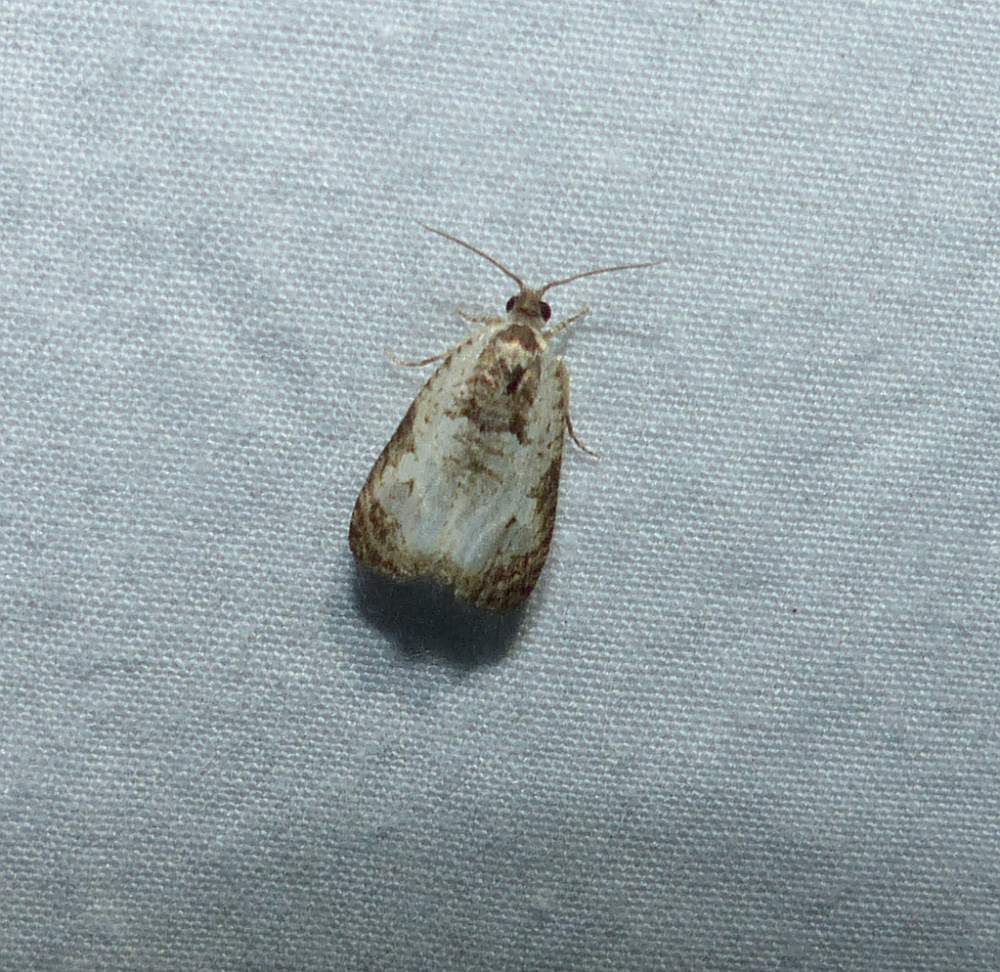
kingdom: Animalia
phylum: Arthropoda
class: Insecta
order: Lepidoptera
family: Tortricidae
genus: Olethreutes
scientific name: Olethreutes malana
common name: Malana leafroller moth
